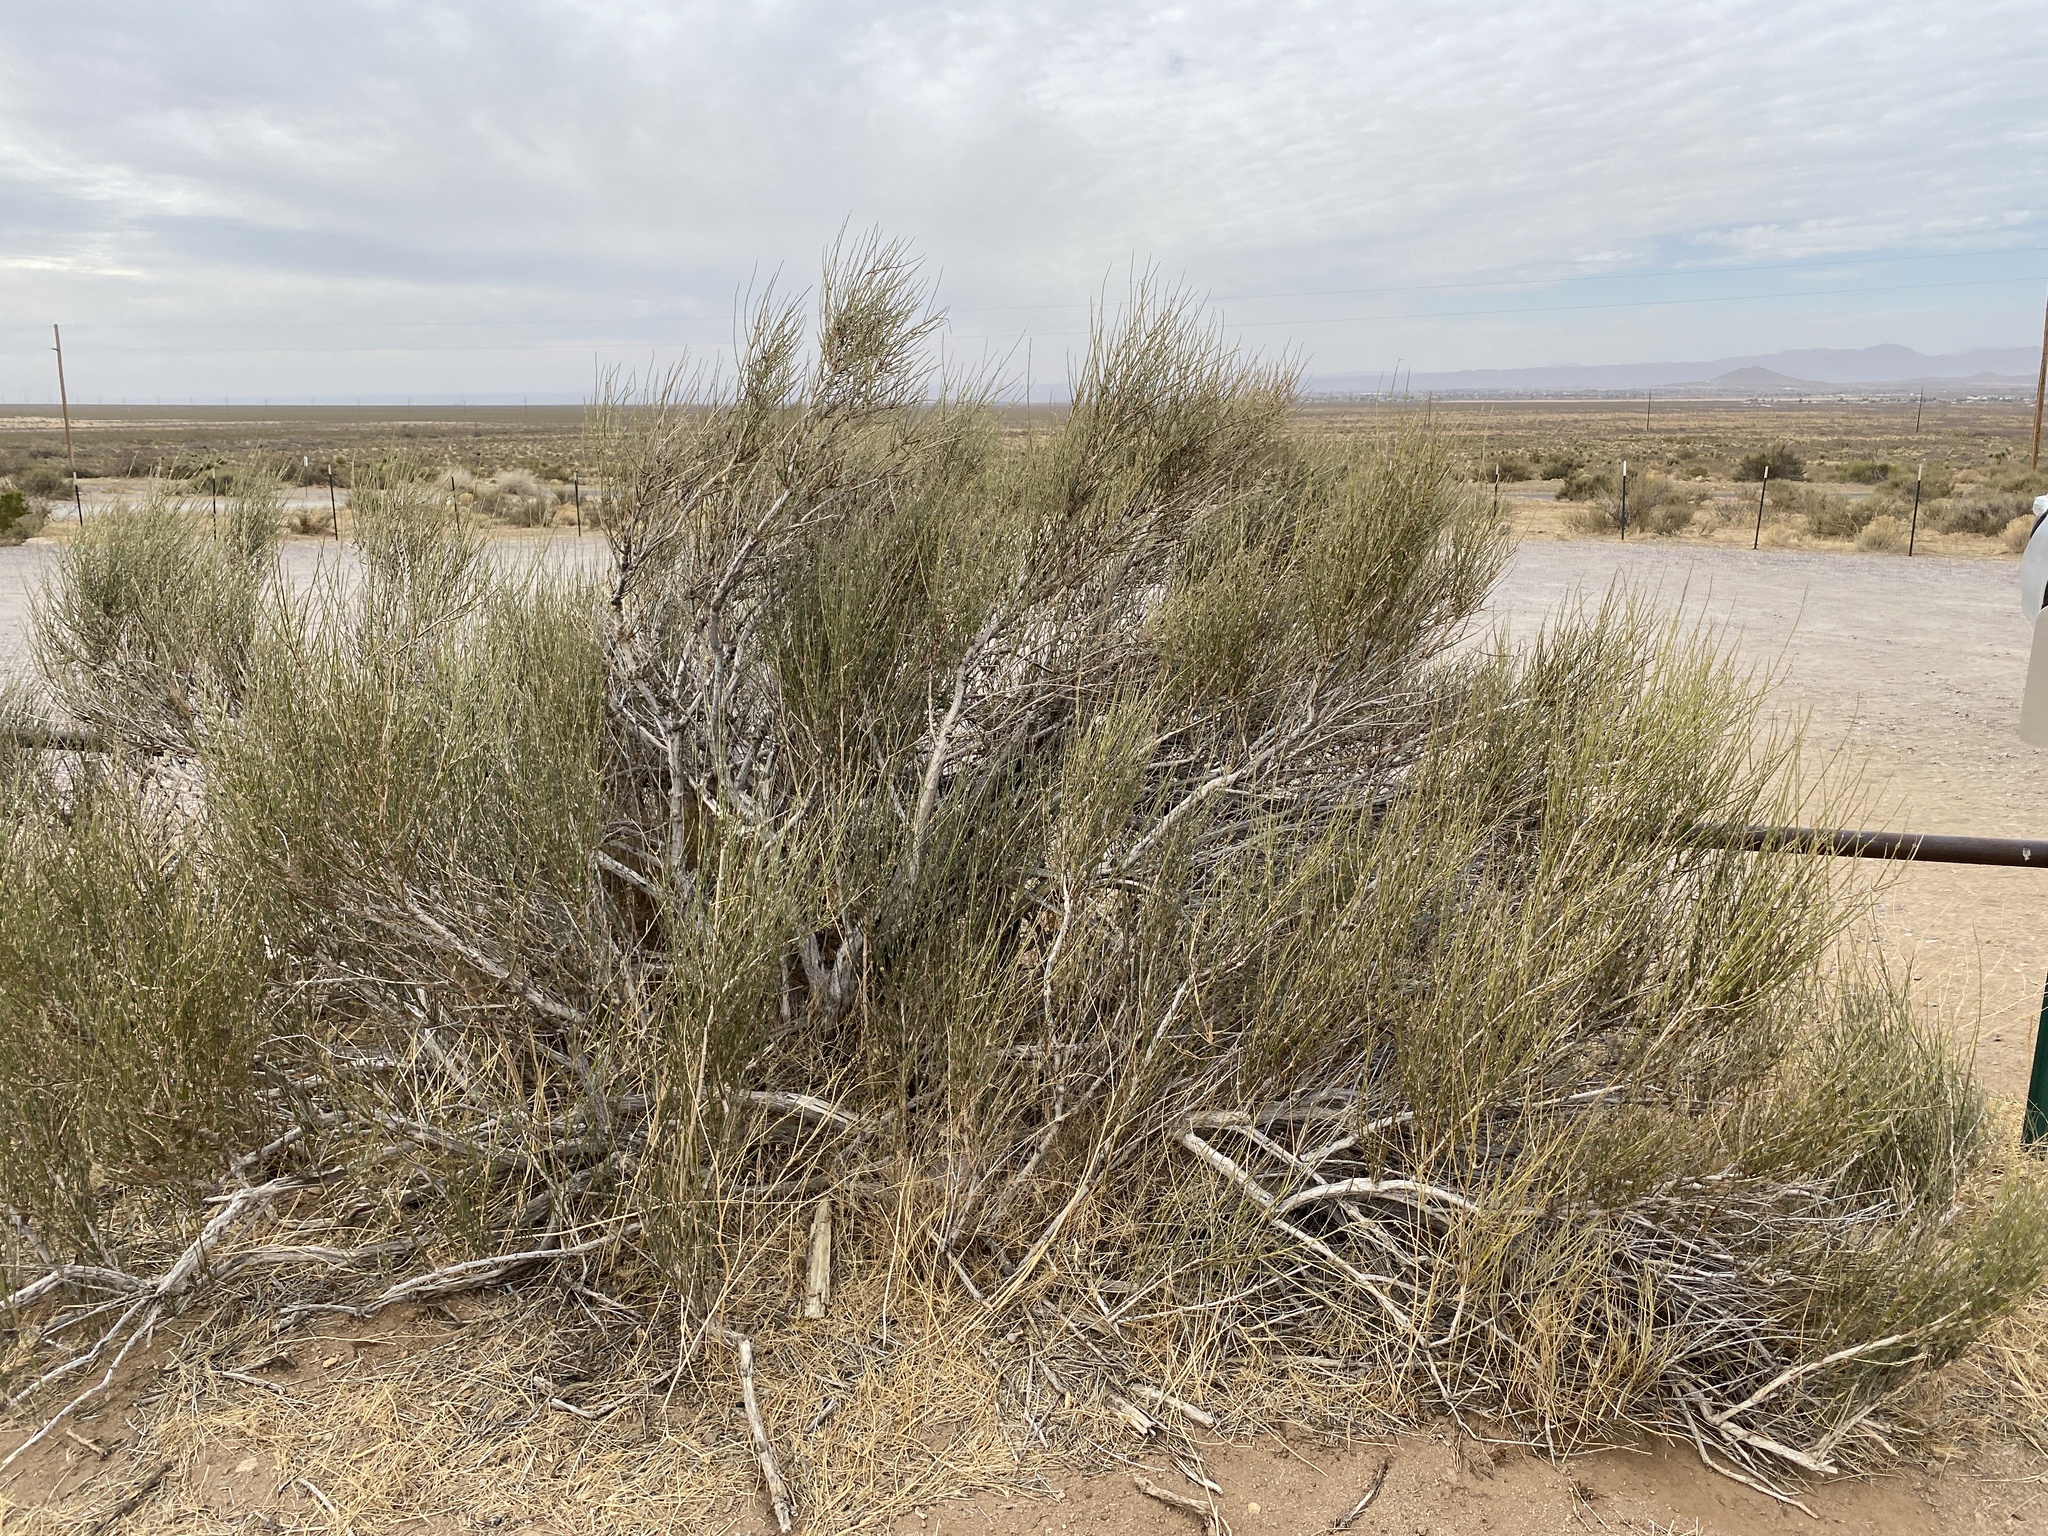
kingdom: Plantae
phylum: Tracheophyta
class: Gnetopsida
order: Ephedrales
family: Ephedraceae
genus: Ephedra
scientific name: Ephedra trifurca
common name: Mexican-tea
